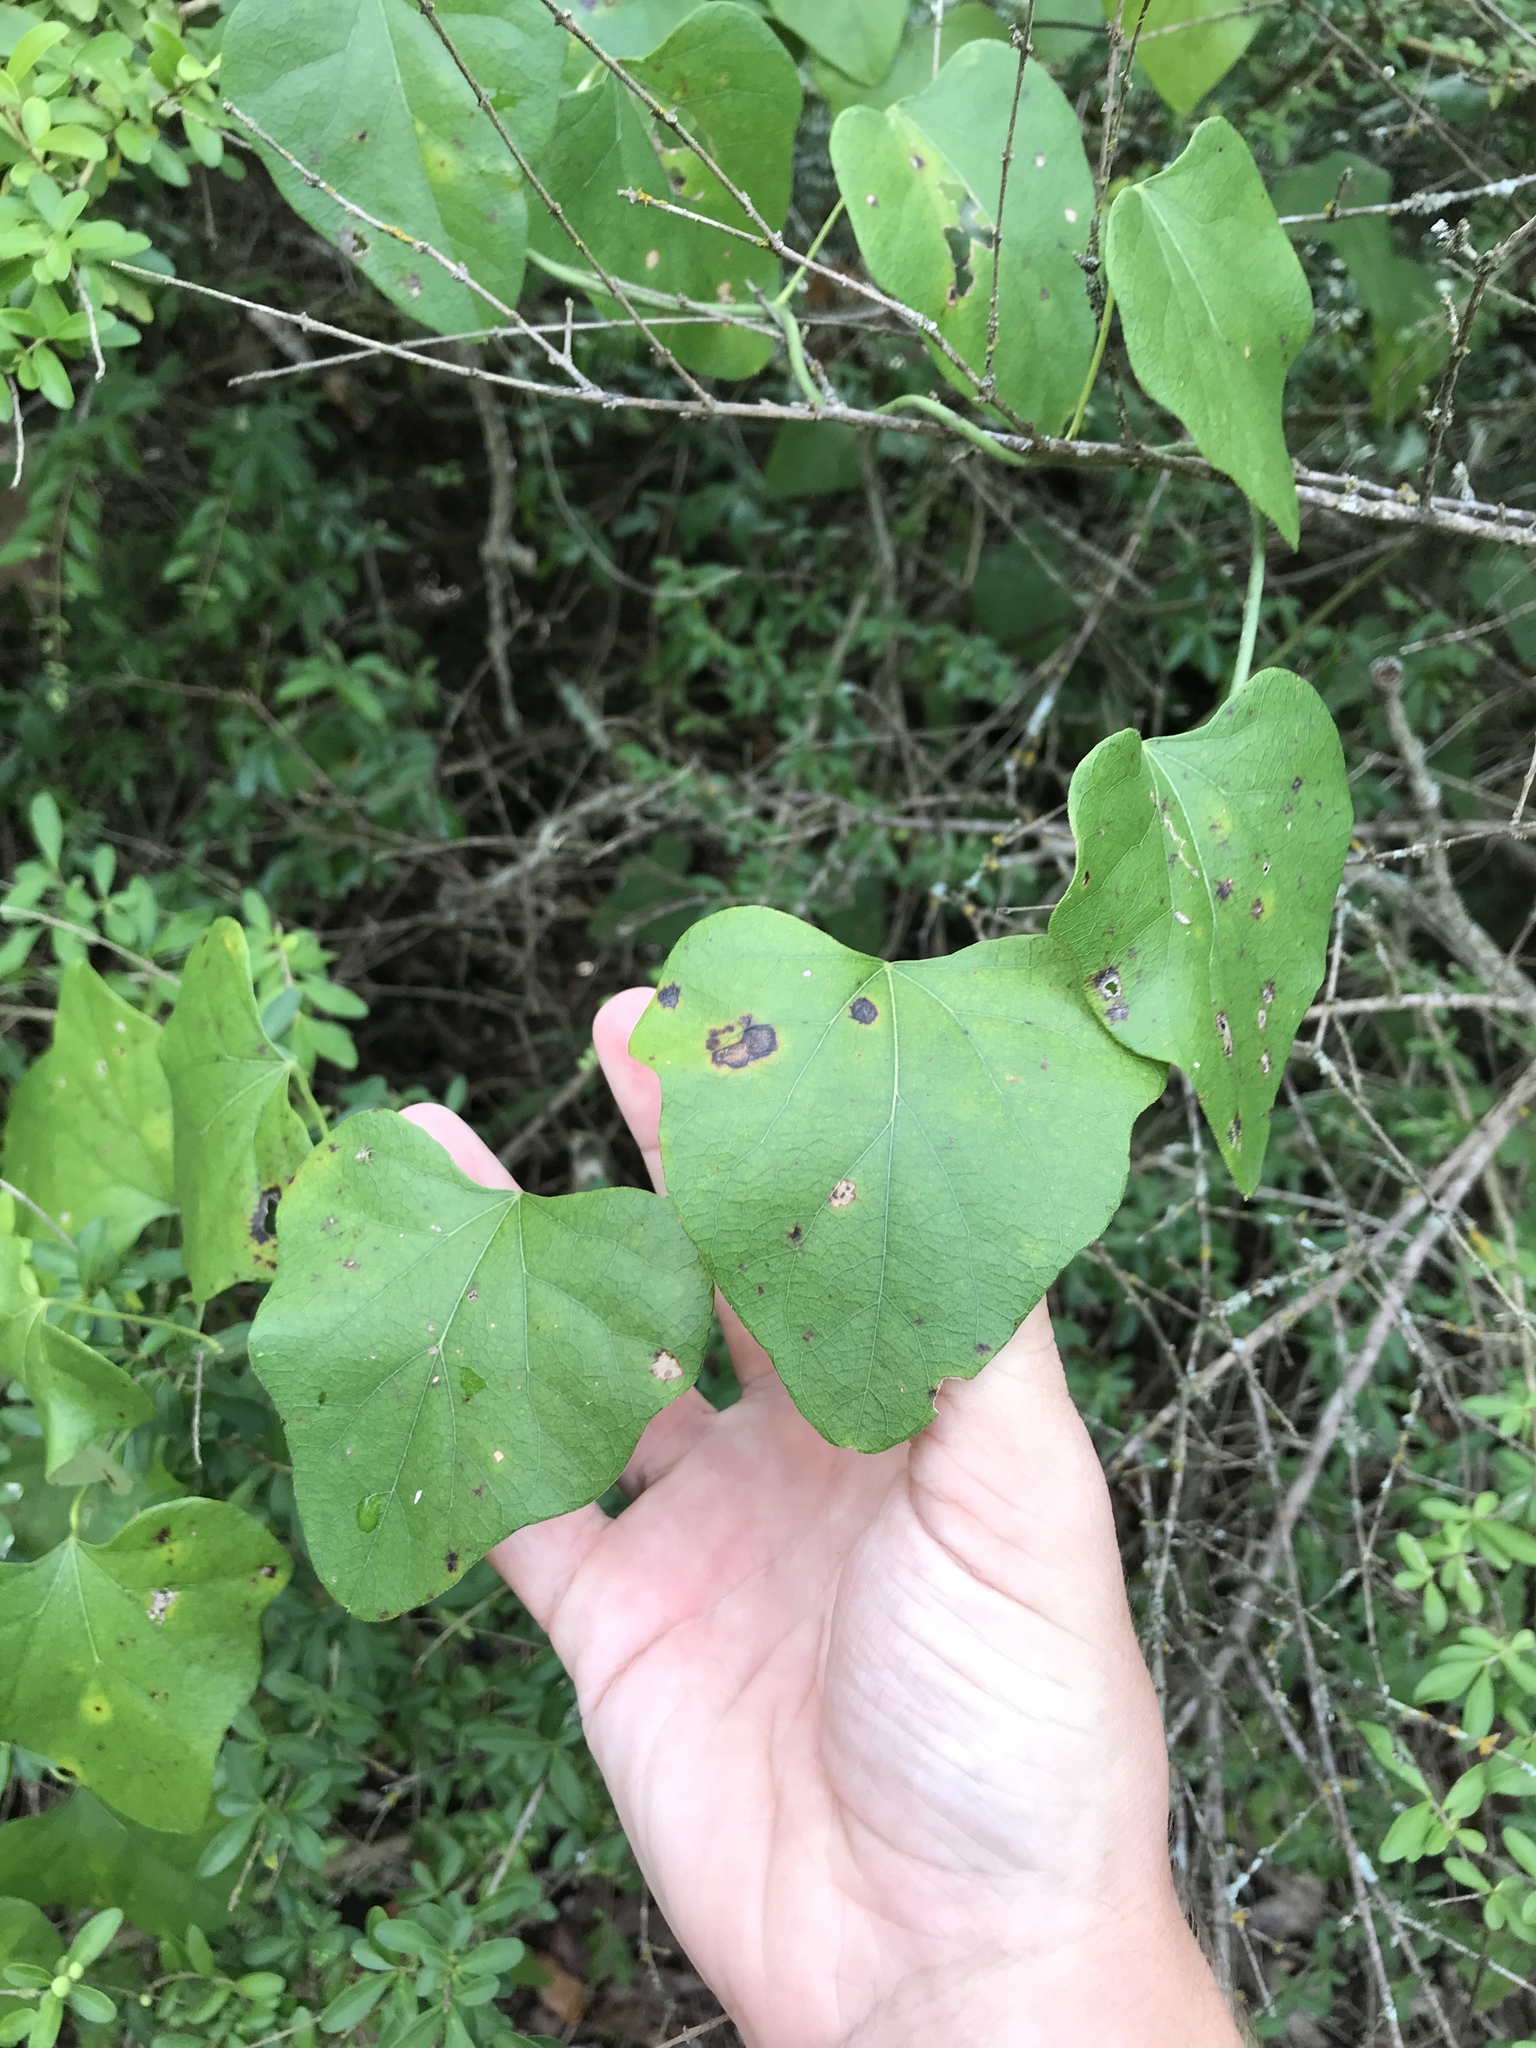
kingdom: Plantae
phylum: Tracheophyta
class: Magnoliopsida
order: Ranunculales
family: Menispermaceae
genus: Cocculus
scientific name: Cocculus carolinus
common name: Carolina moonseed
